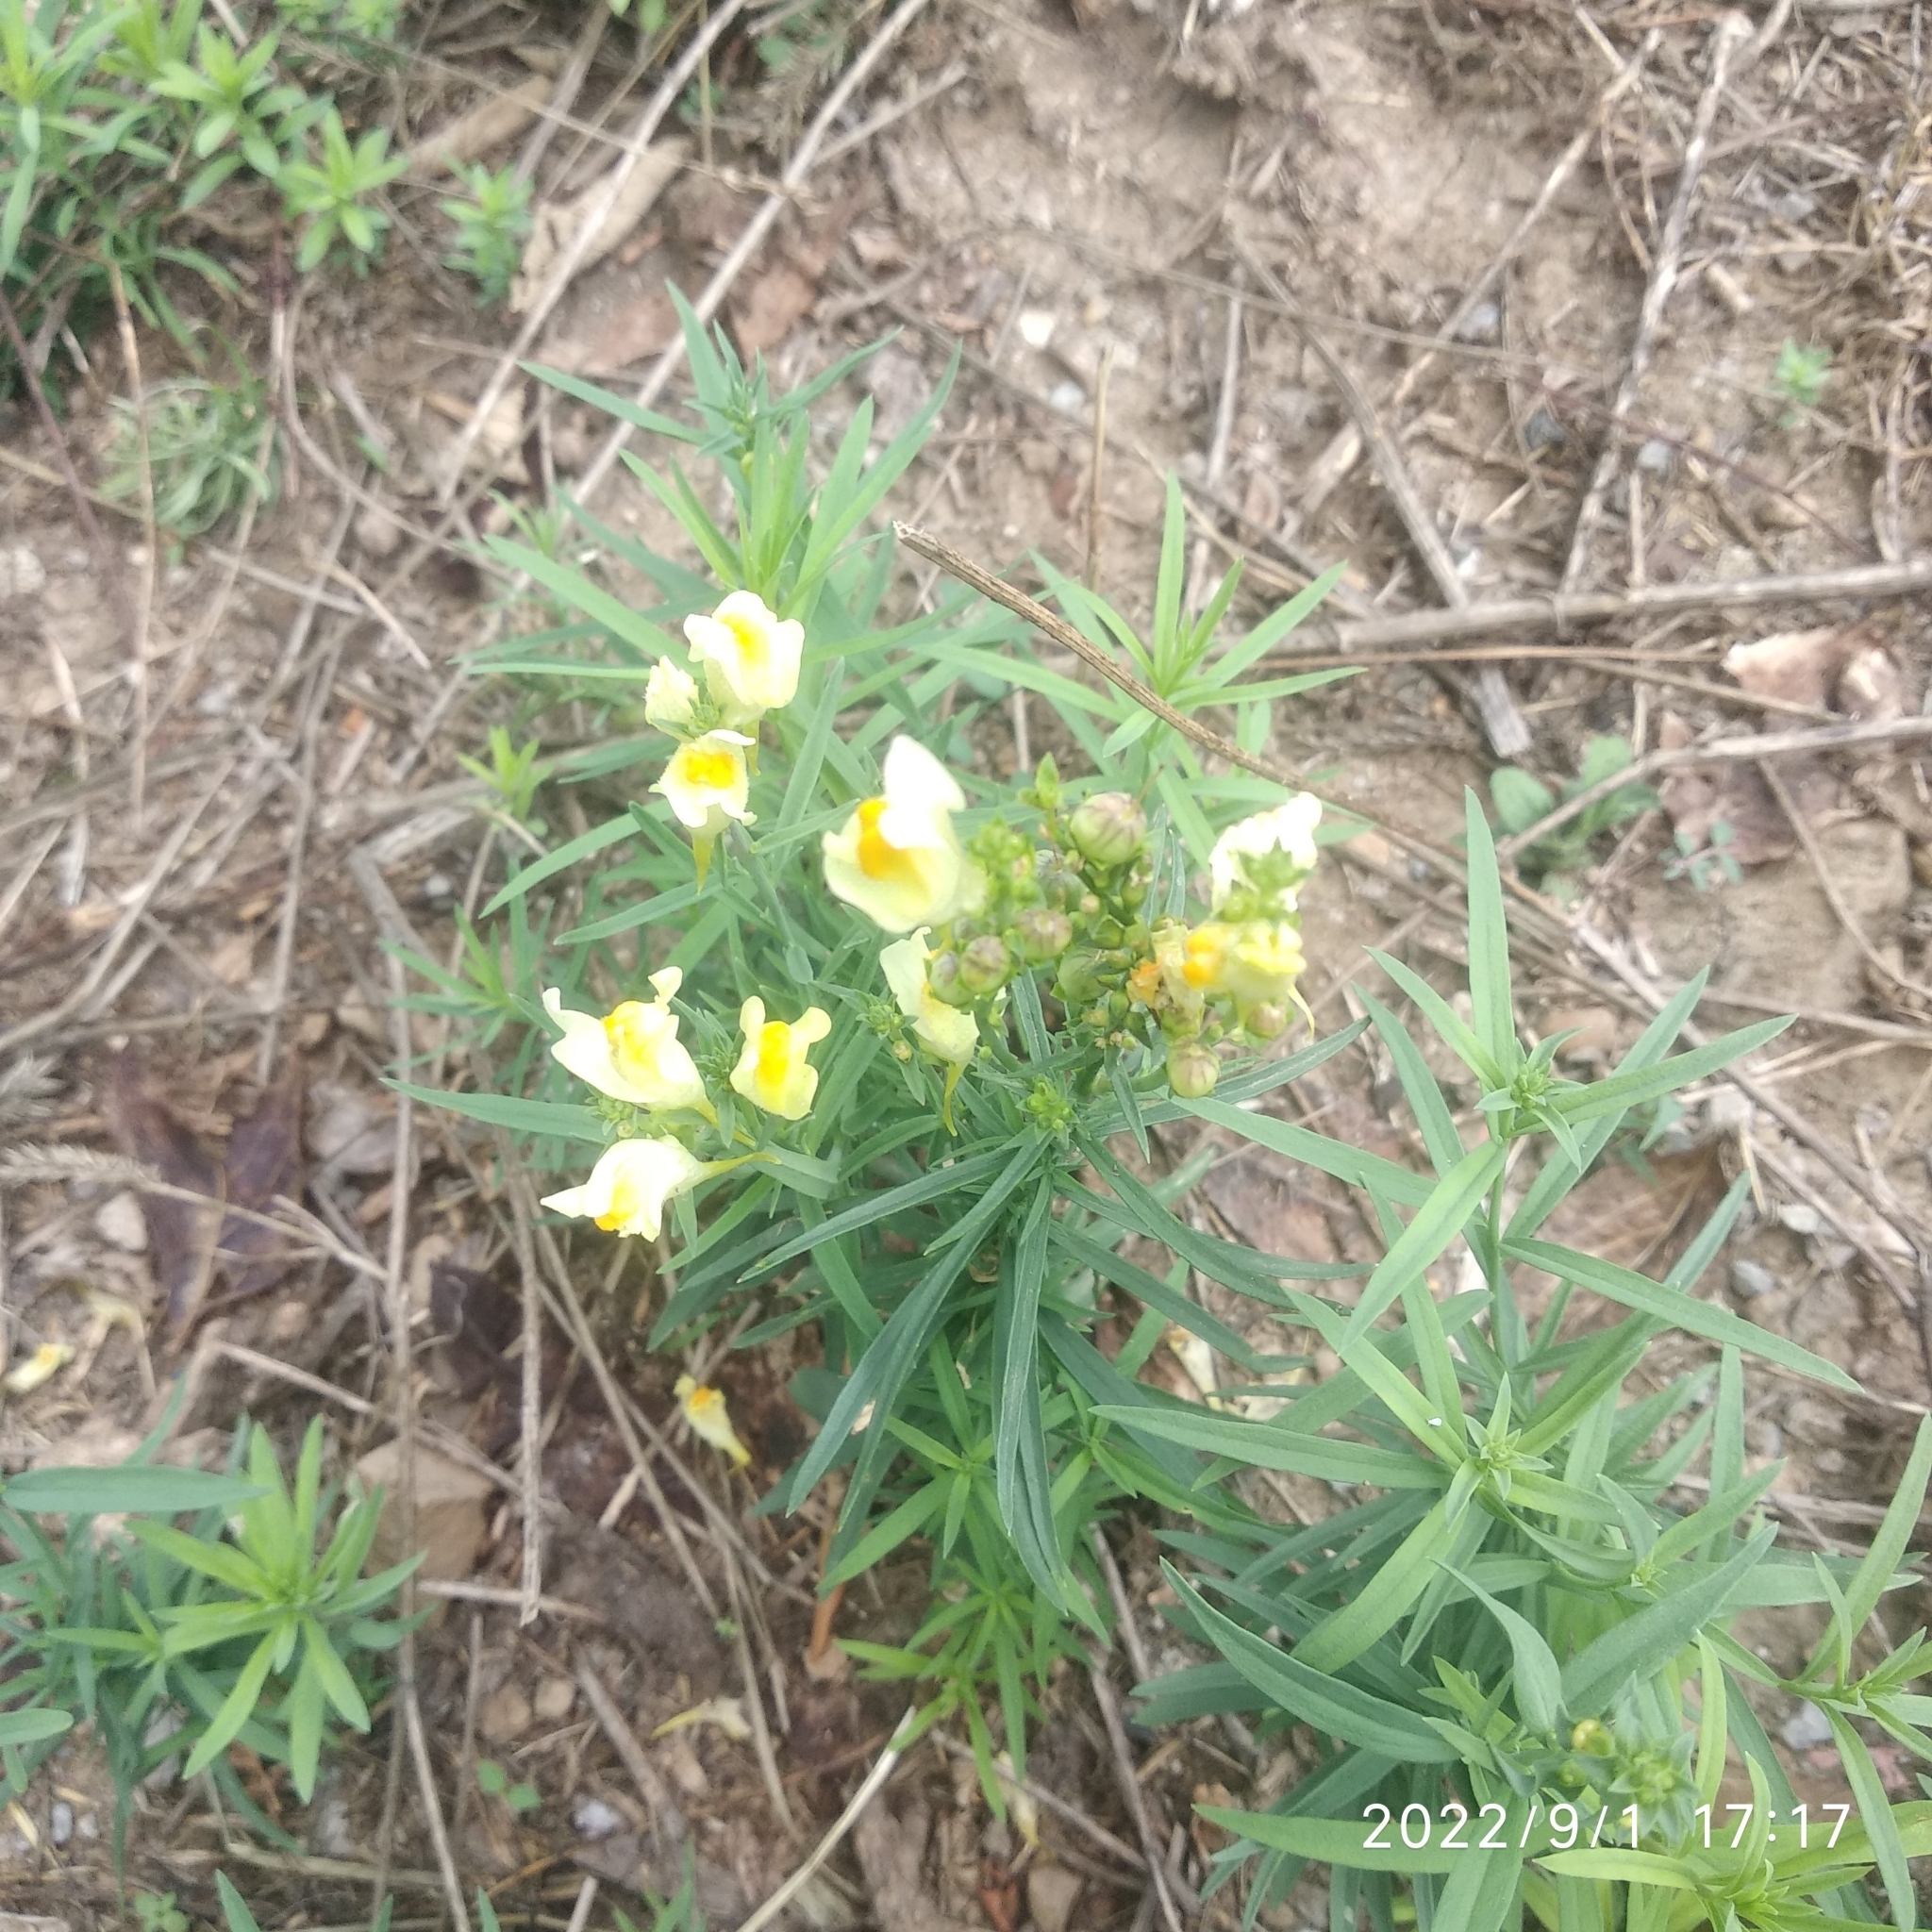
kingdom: Plantae
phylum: Tracheophyta
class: Magnoliopsida
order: Lamiales
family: Plantaginaceae
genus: Linaria
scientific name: Linaria vulgaris
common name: Butter and eggs
